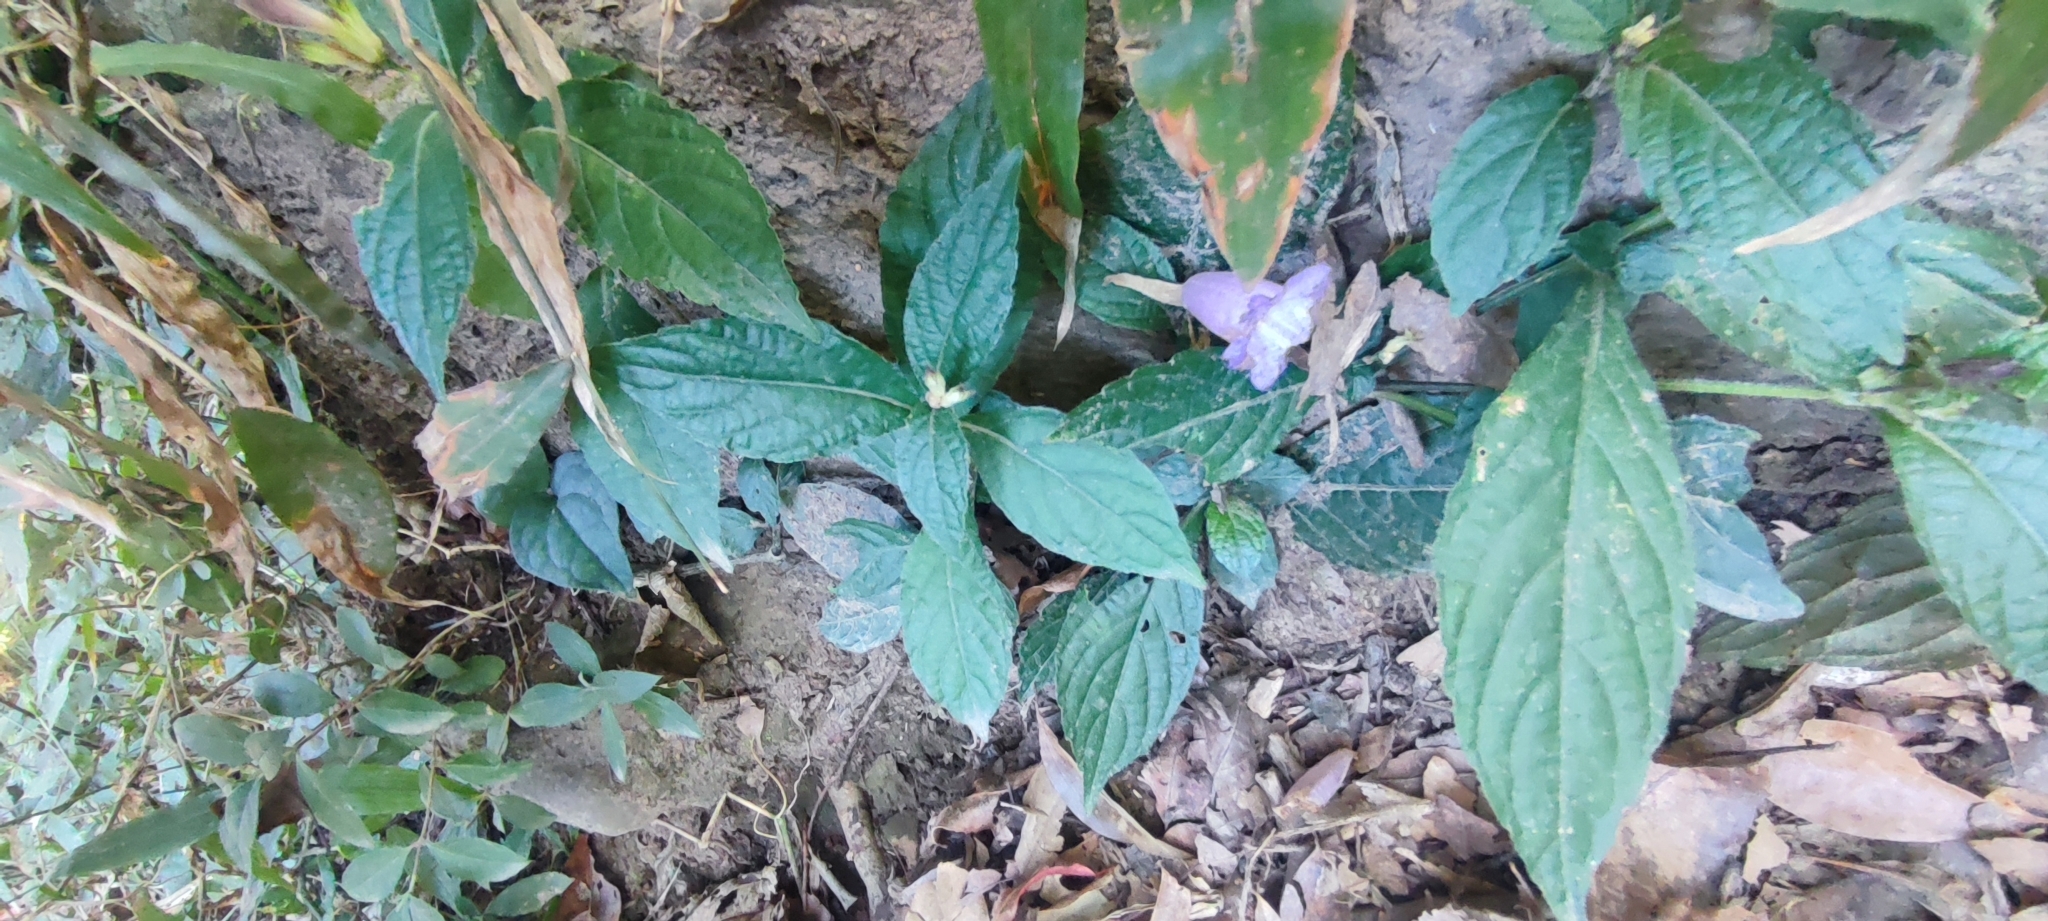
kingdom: Plantae
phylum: Tracheophyta
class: Magnoliopsida
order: Lamiales
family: Acanthaceae
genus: Strobilanthes
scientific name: Strobilanthes formosana
